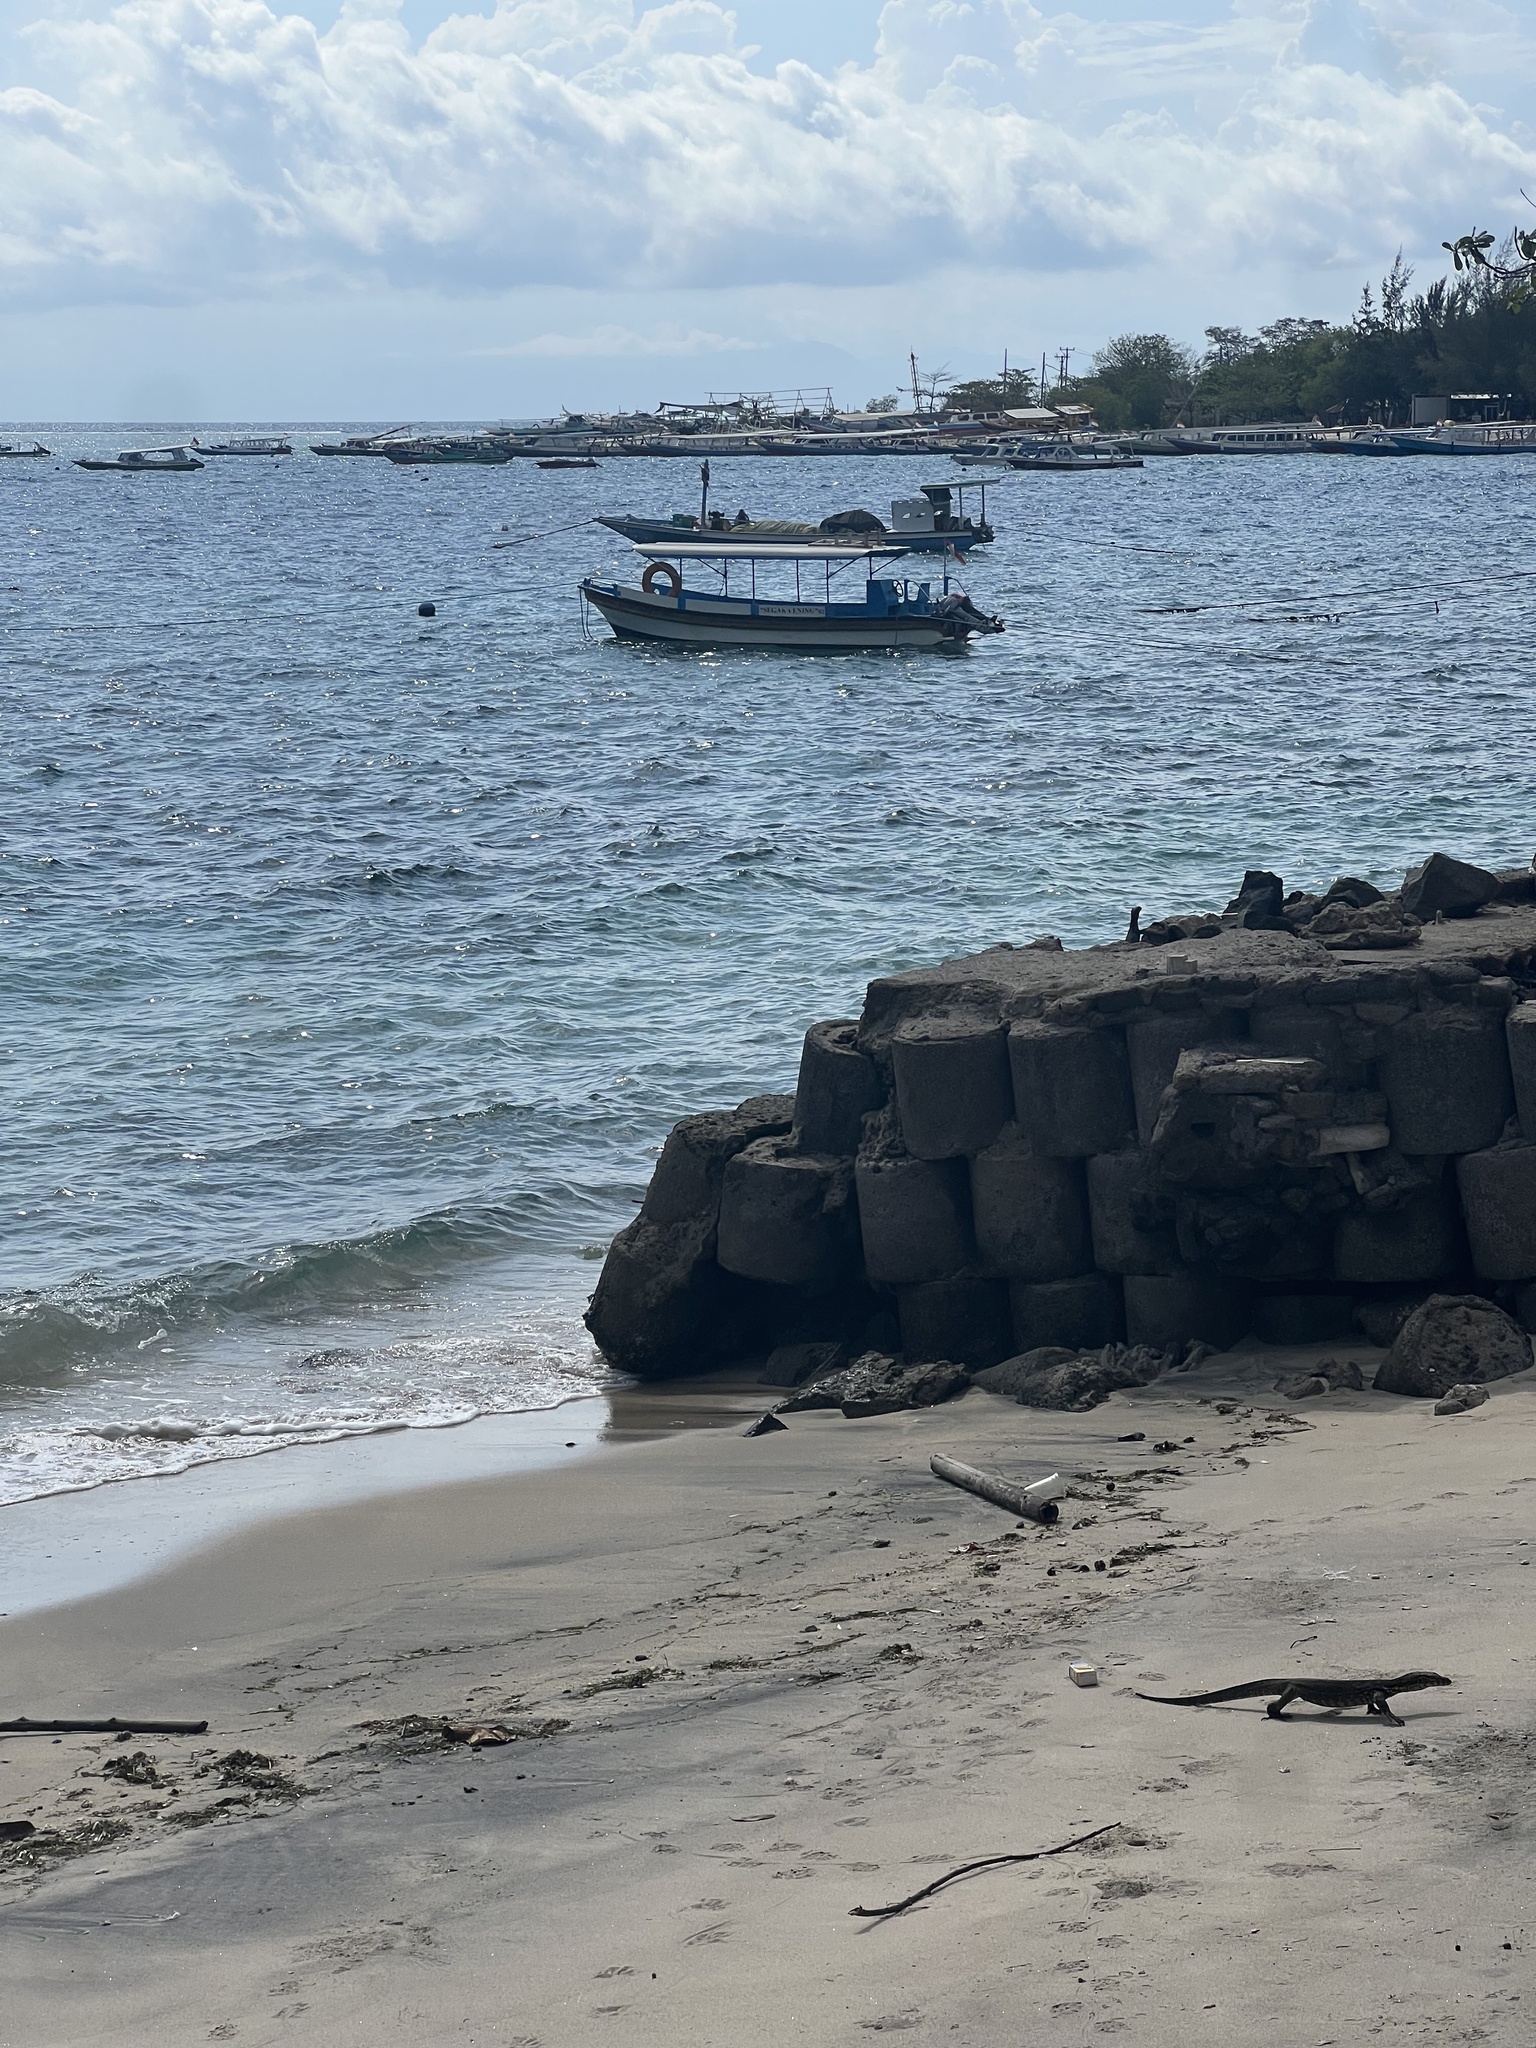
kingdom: Animalia
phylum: Chordata
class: Squamata
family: Varanidae
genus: Varanus
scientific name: Varanus salvator
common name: Common water monitor
